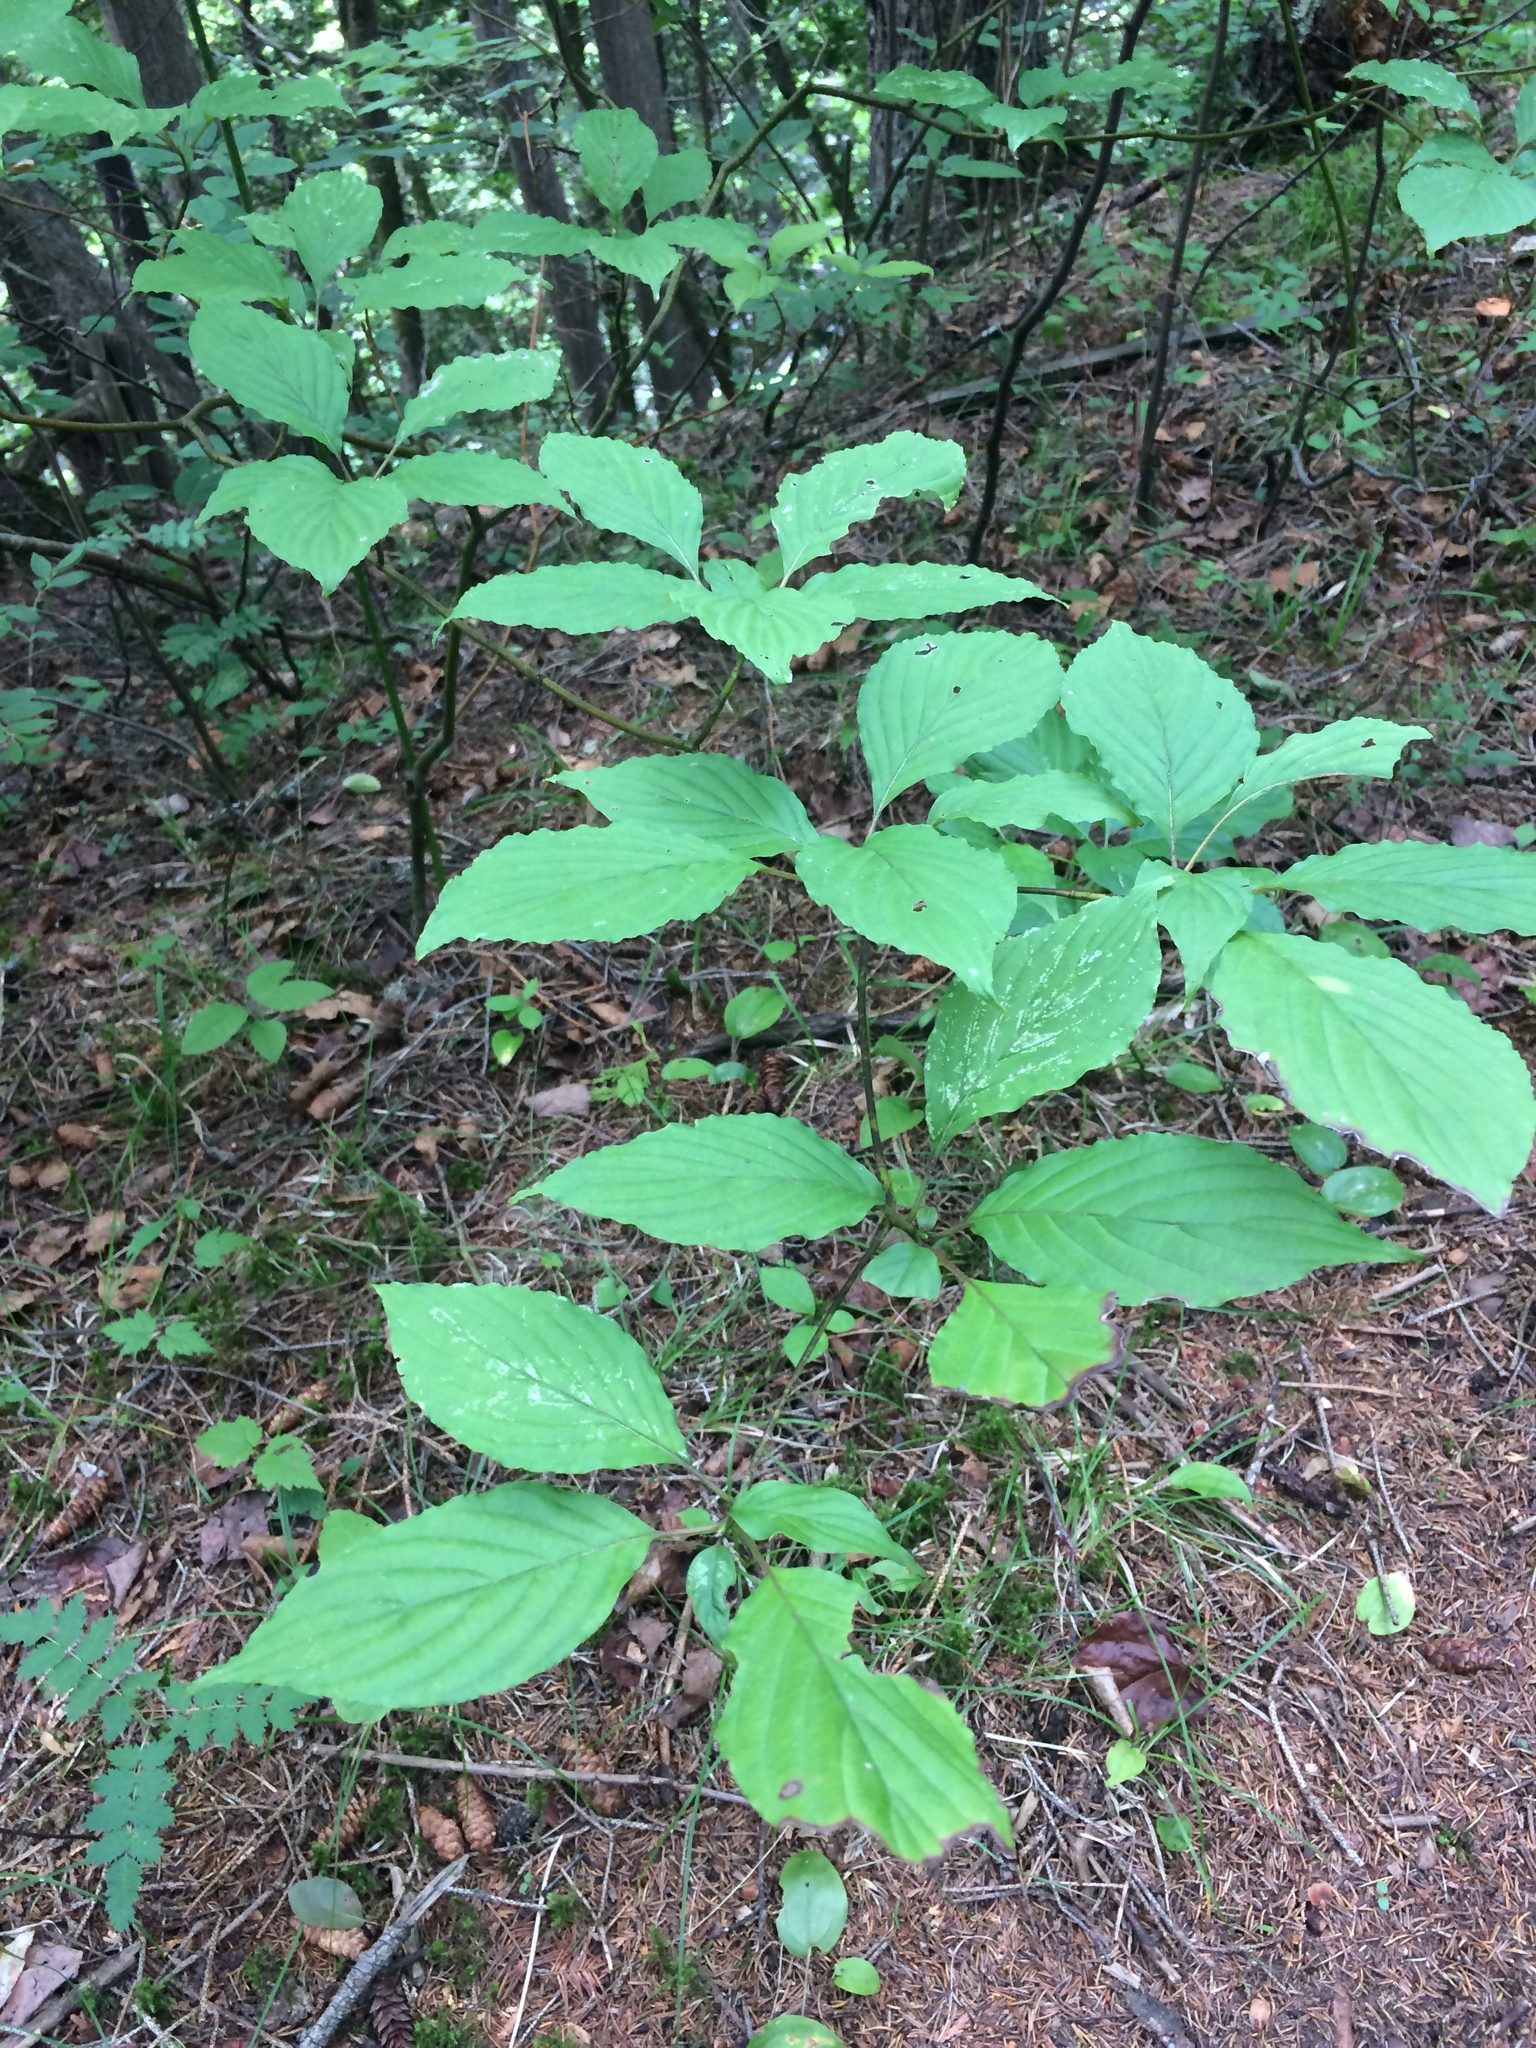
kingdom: Plantae
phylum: Tracheophyta
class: Magnoliopsida
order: Cornales
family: Cornaceae
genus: Cornus
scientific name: Cornus alternifolia
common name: Pagoda dogwood
